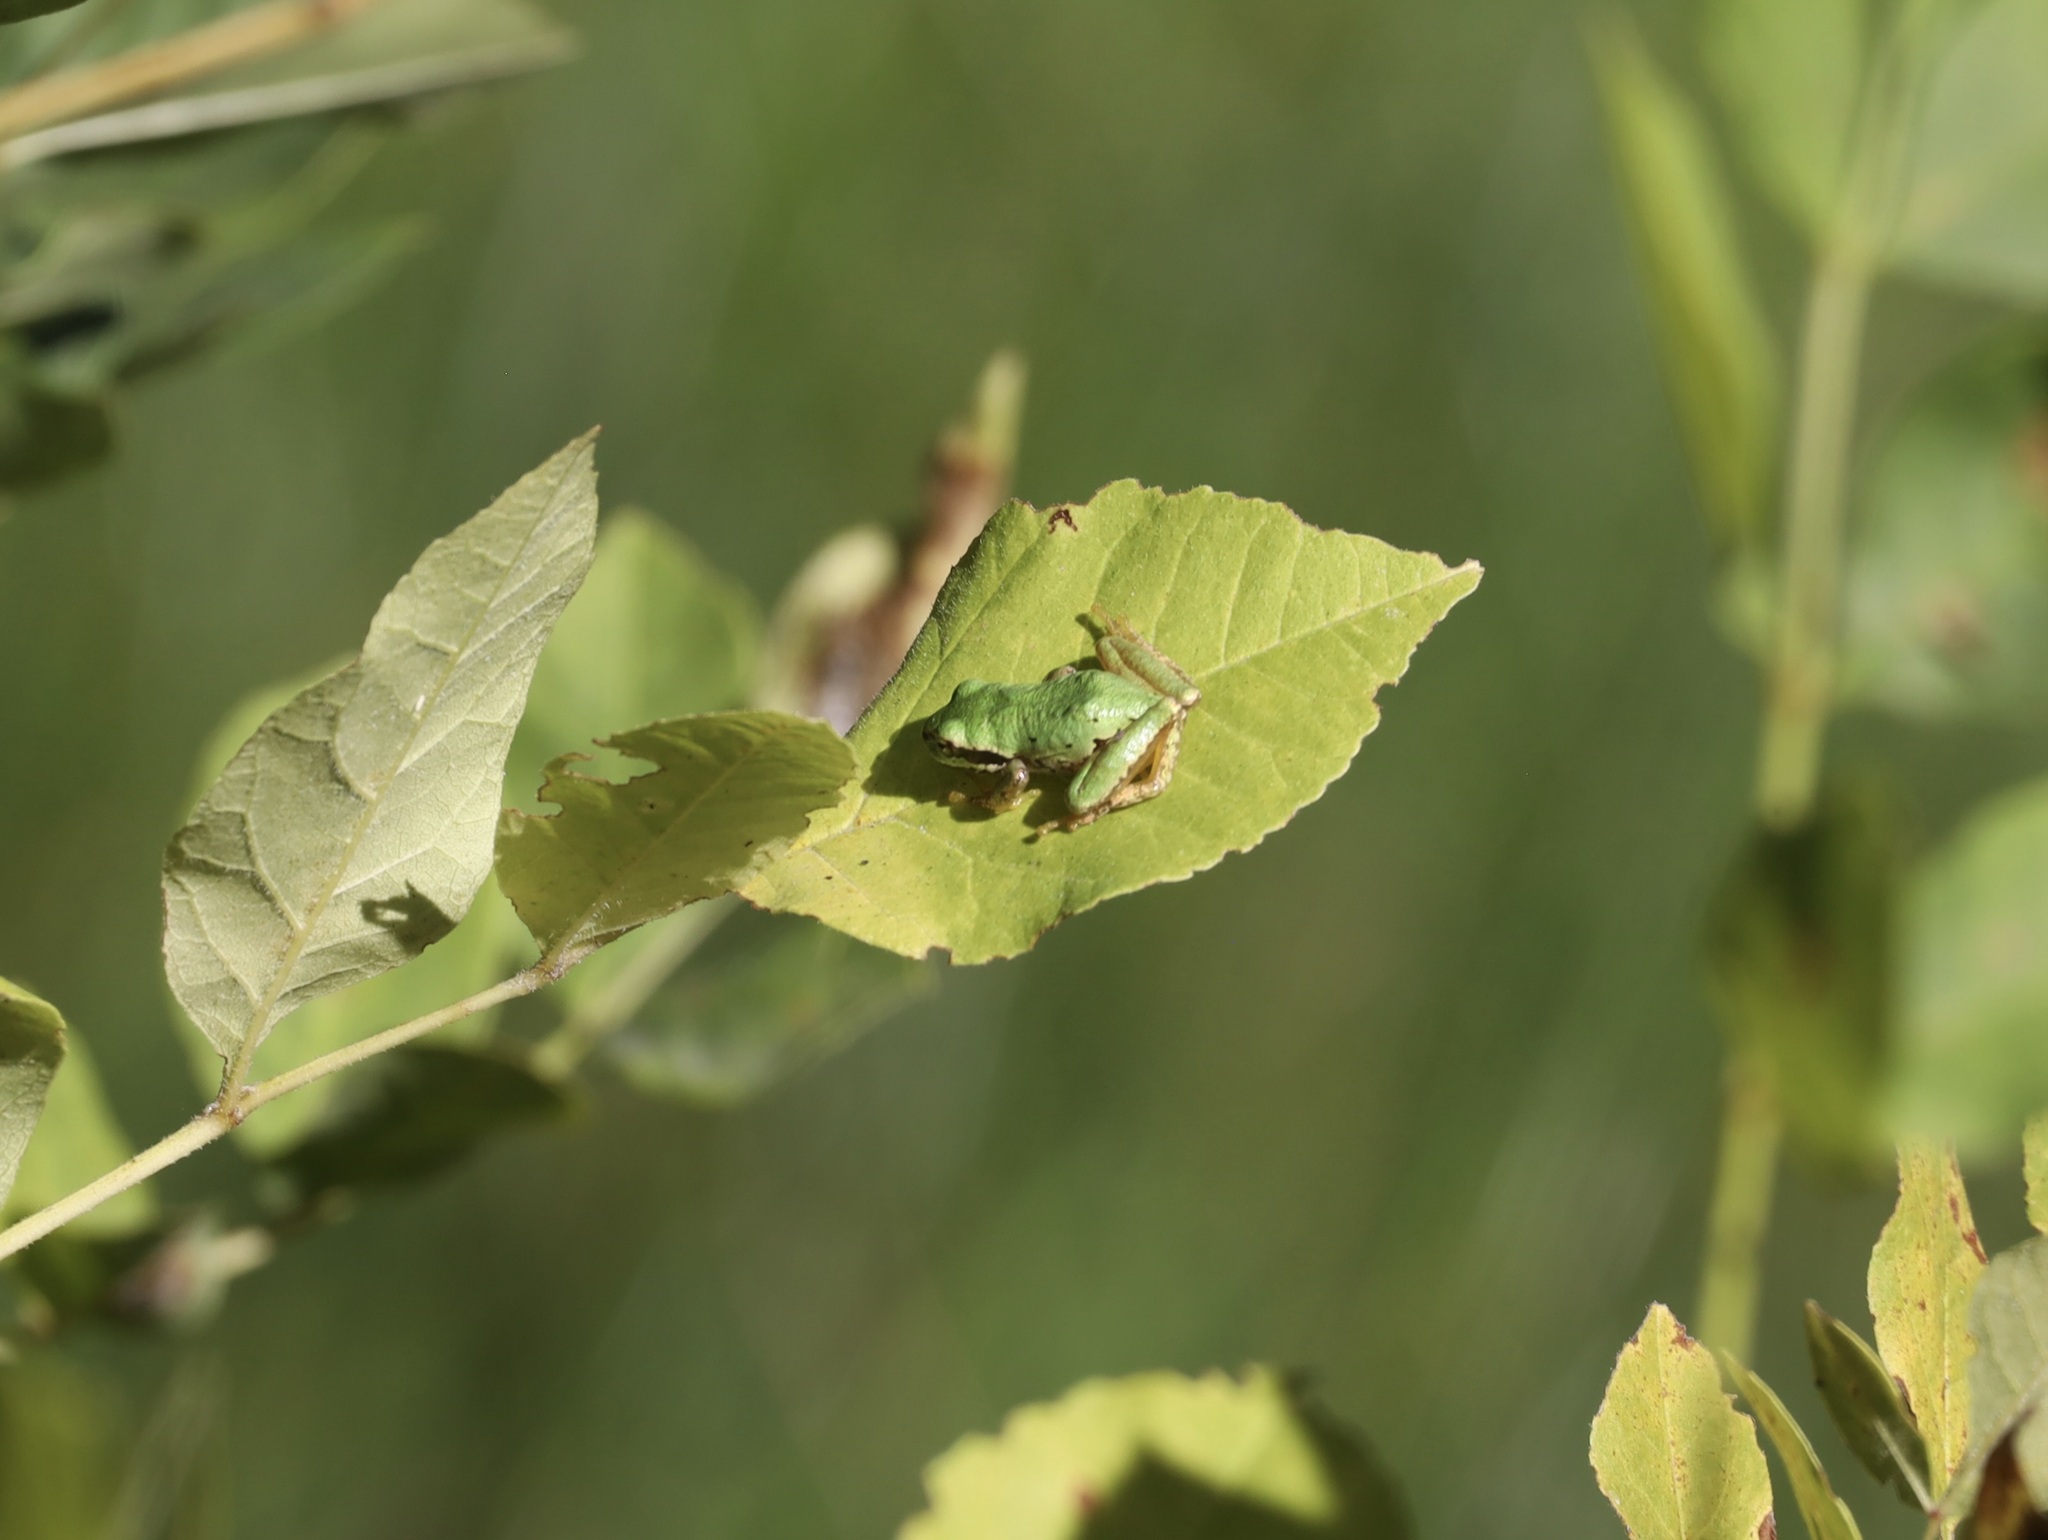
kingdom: Animalia
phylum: Chordata
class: Amphibia
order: Anura
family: Hylidae
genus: Pseudacris
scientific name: Pseudacris regilla
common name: Pacific chorus frog
